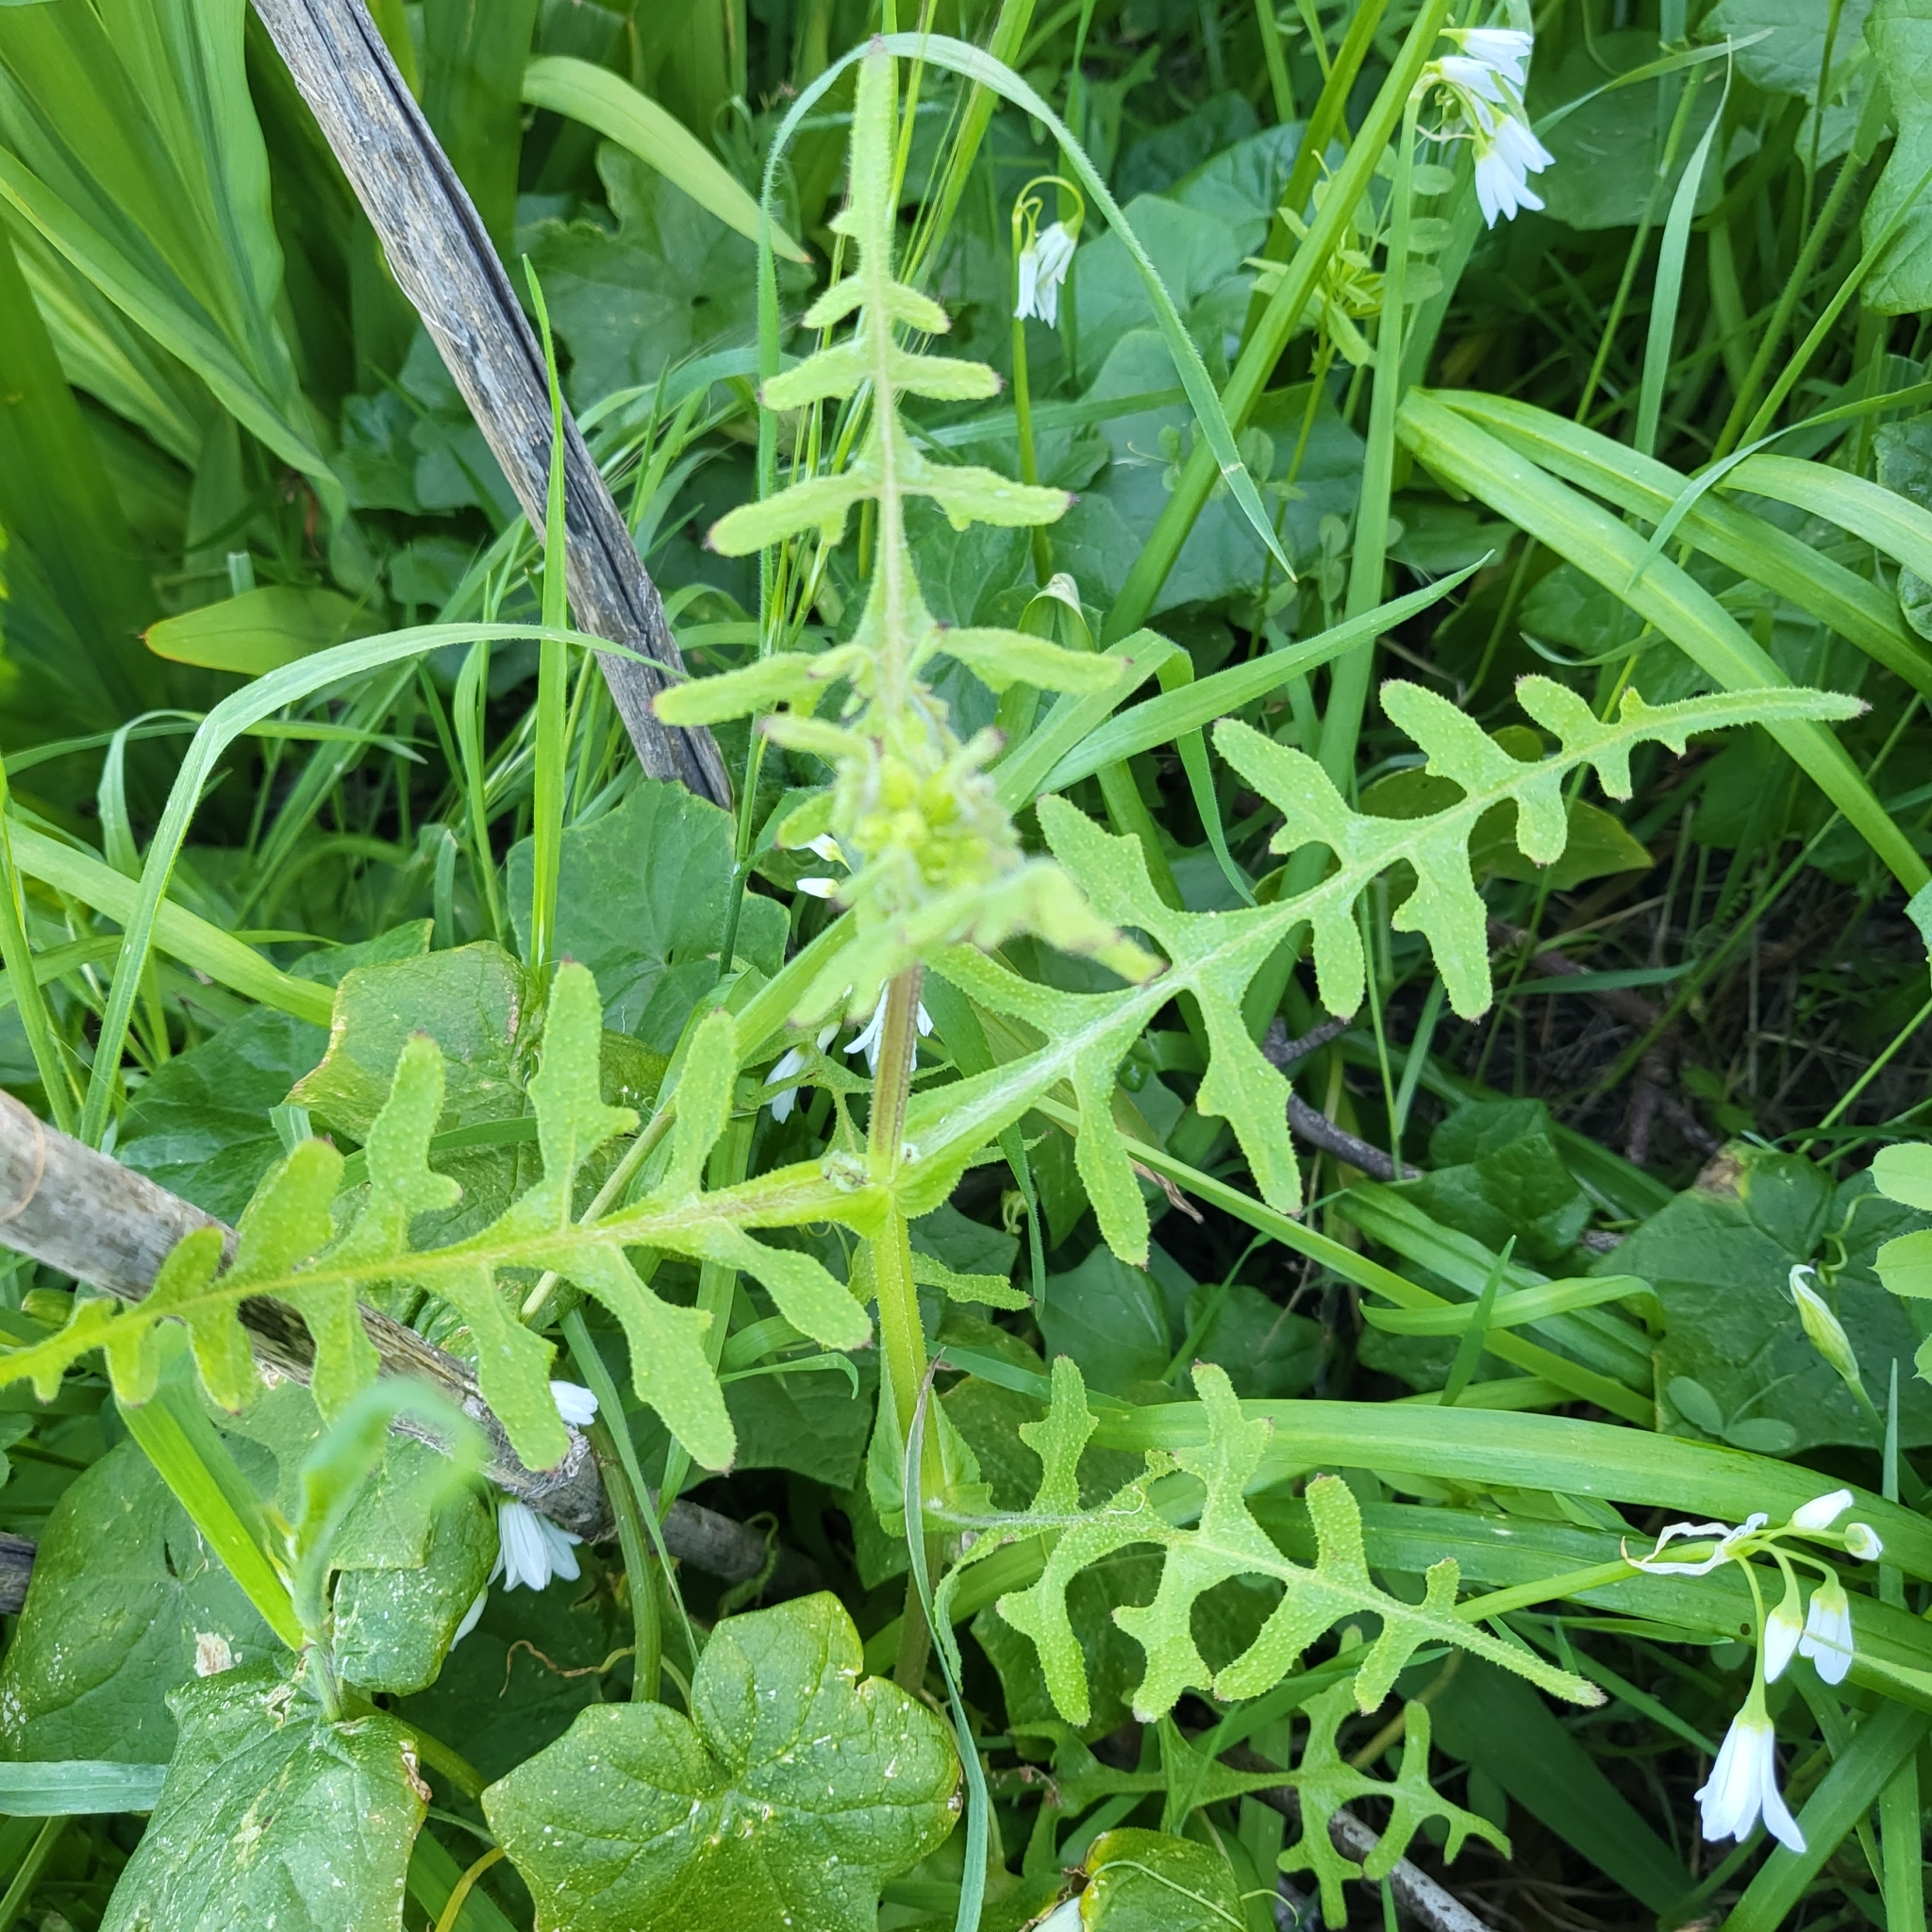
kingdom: Plantae
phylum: Tracheophyta
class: Magnoliopsida
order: Boraginales
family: Hydrophyllaceae
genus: Pholistoma
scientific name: Pholistoma auritum
